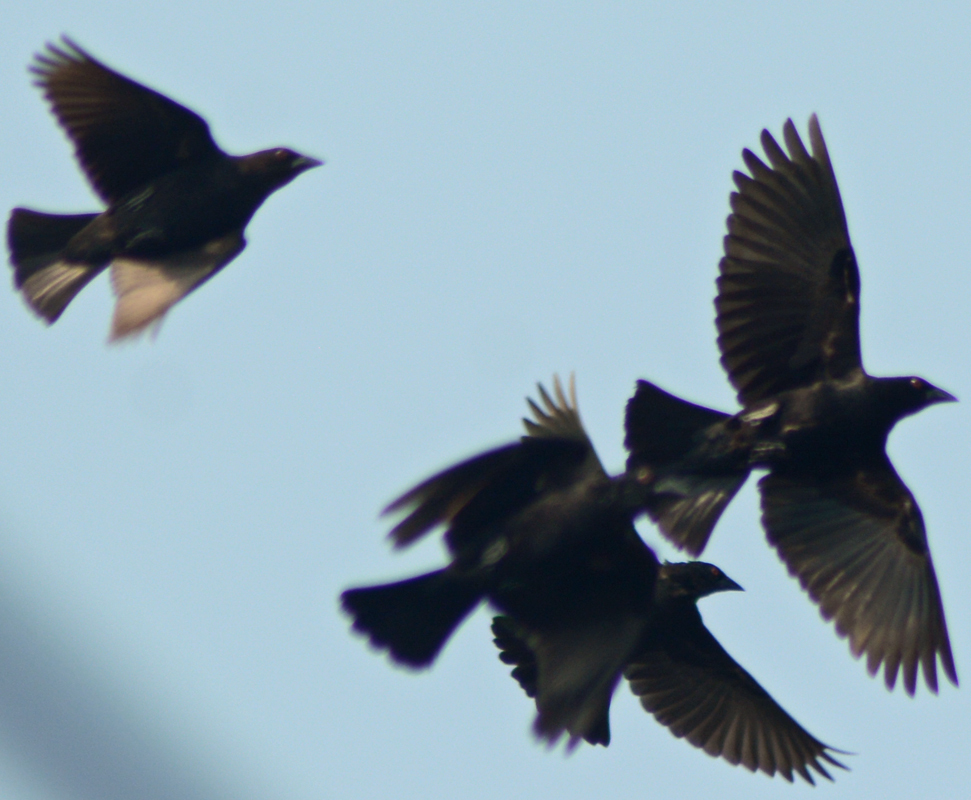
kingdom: Animalia
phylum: Chordata
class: Aves
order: Passeriformes
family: Icteridae
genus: Molothrus
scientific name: Molothrus aeneus
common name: Bronzed cowbird
